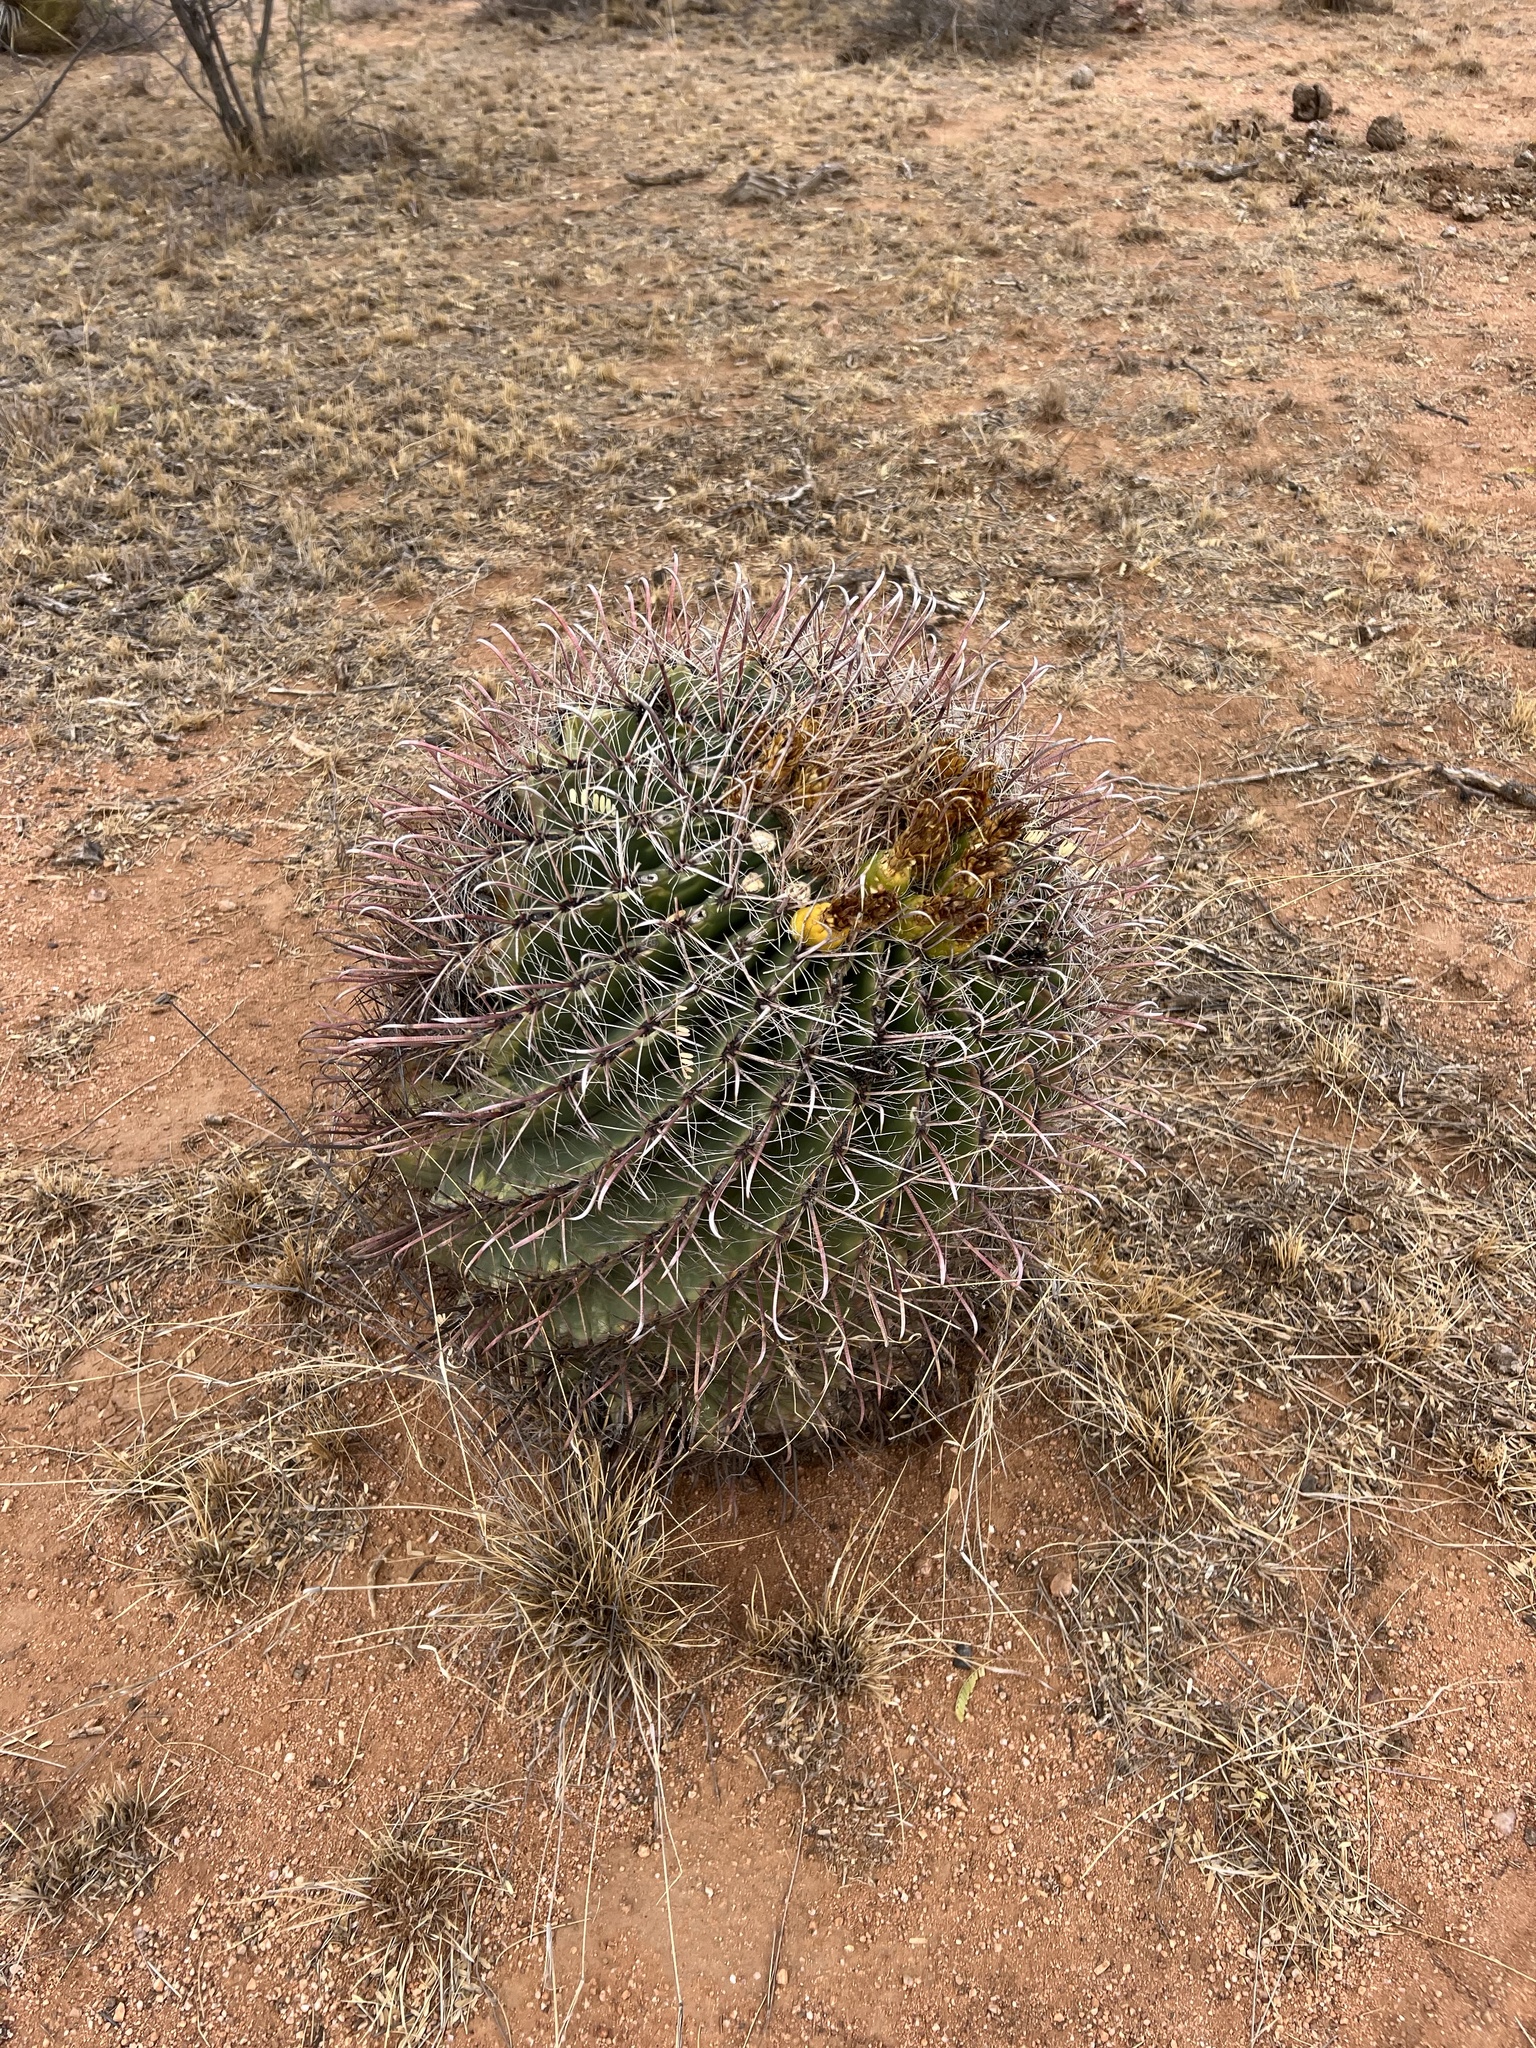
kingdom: Plantae
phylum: Tracheophyta
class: Magnoliopsida
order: Caryophyllales
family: Cactaceae
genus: Ferocactus
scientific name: Ferocactus wislizeni
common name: Candy barrel cactus
